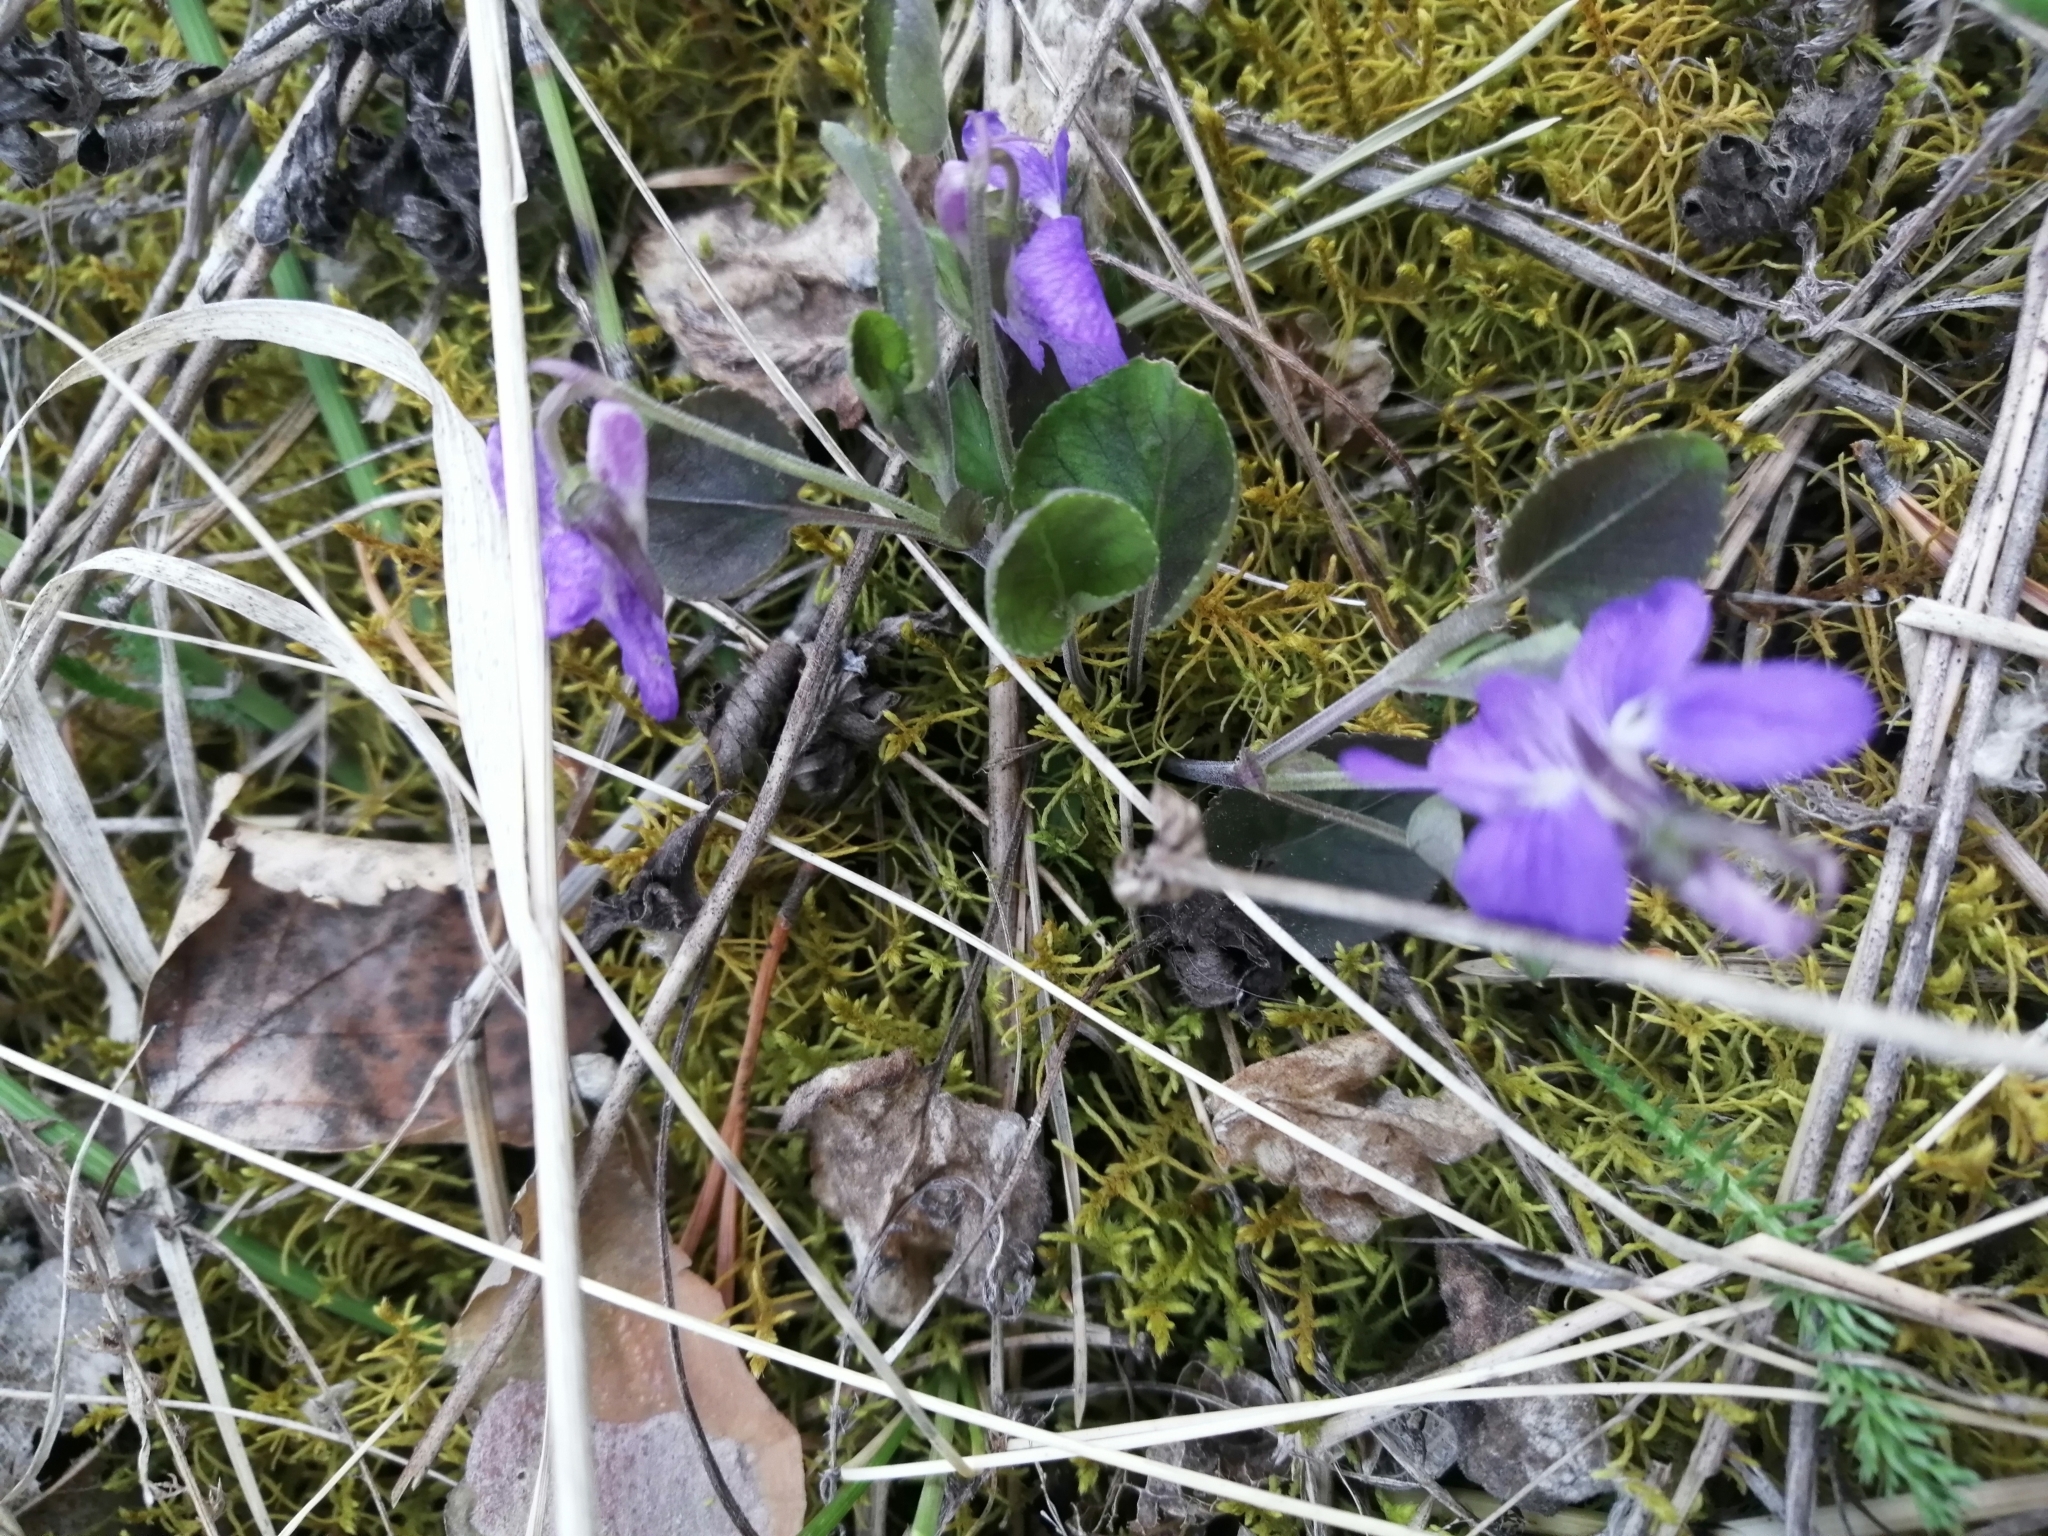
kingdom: Plantae
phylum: Tracheophyta
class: Magnoliopsida
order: Malpighiales
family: Violaceae
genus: Viola
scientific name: Viola rupestris
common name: Teesdale violet
